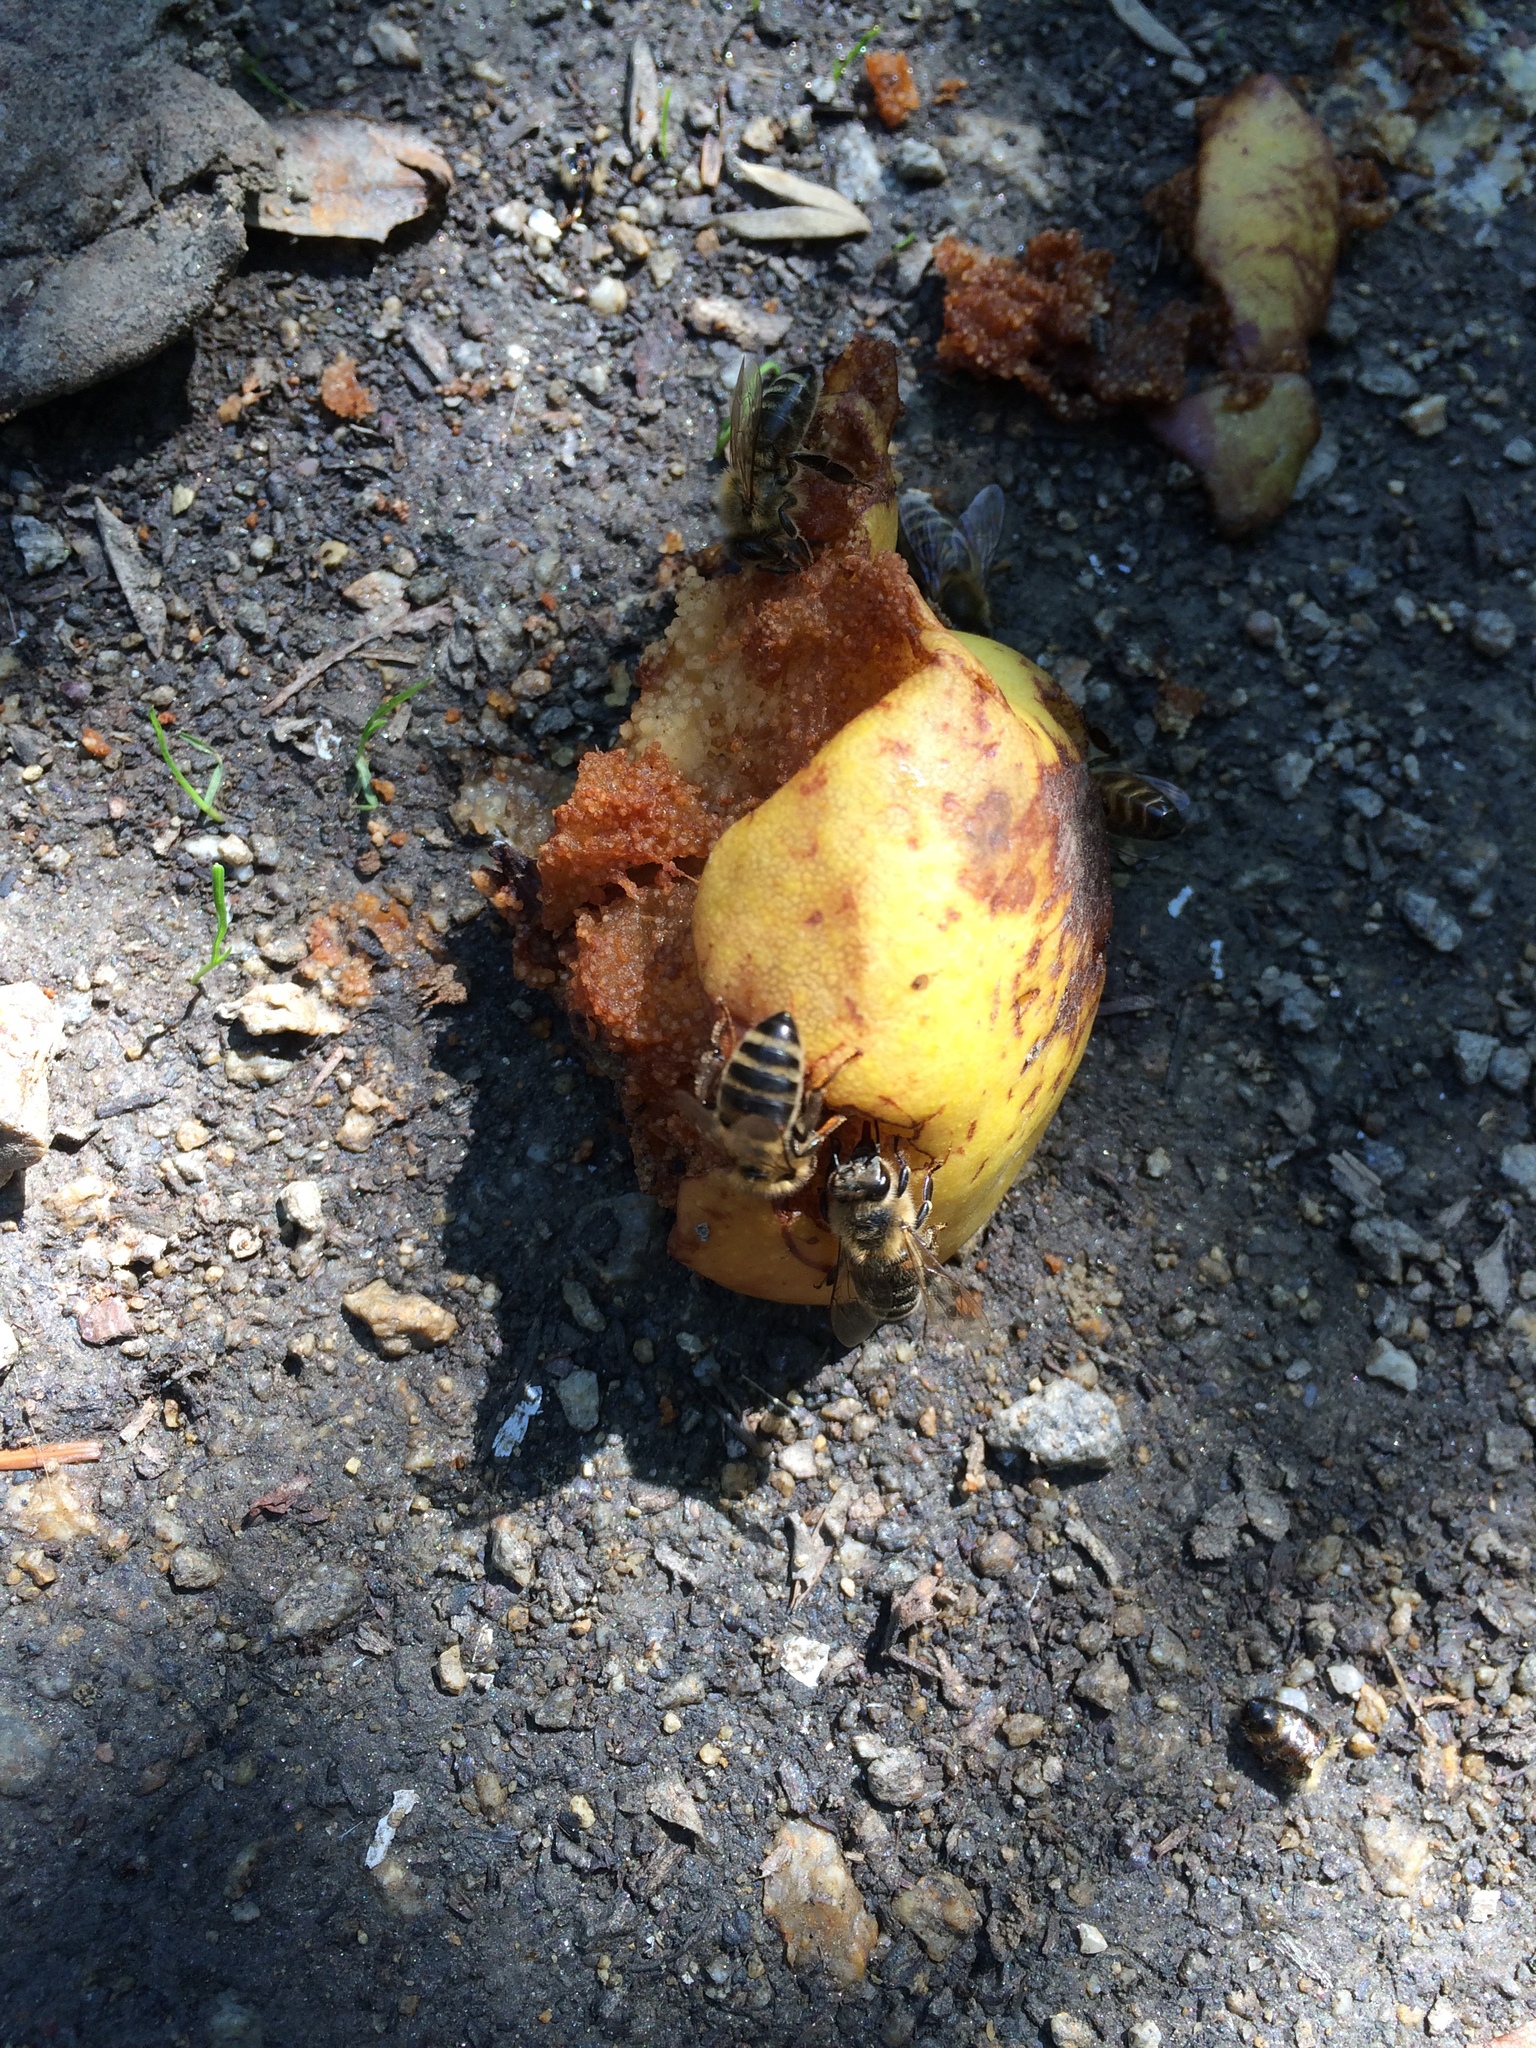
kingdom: Animalia
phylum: Arthropoda
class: Insecta
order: Hymenoptera
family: Apidae
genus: Apis
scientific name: Apis mellifera
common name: Honey bee
